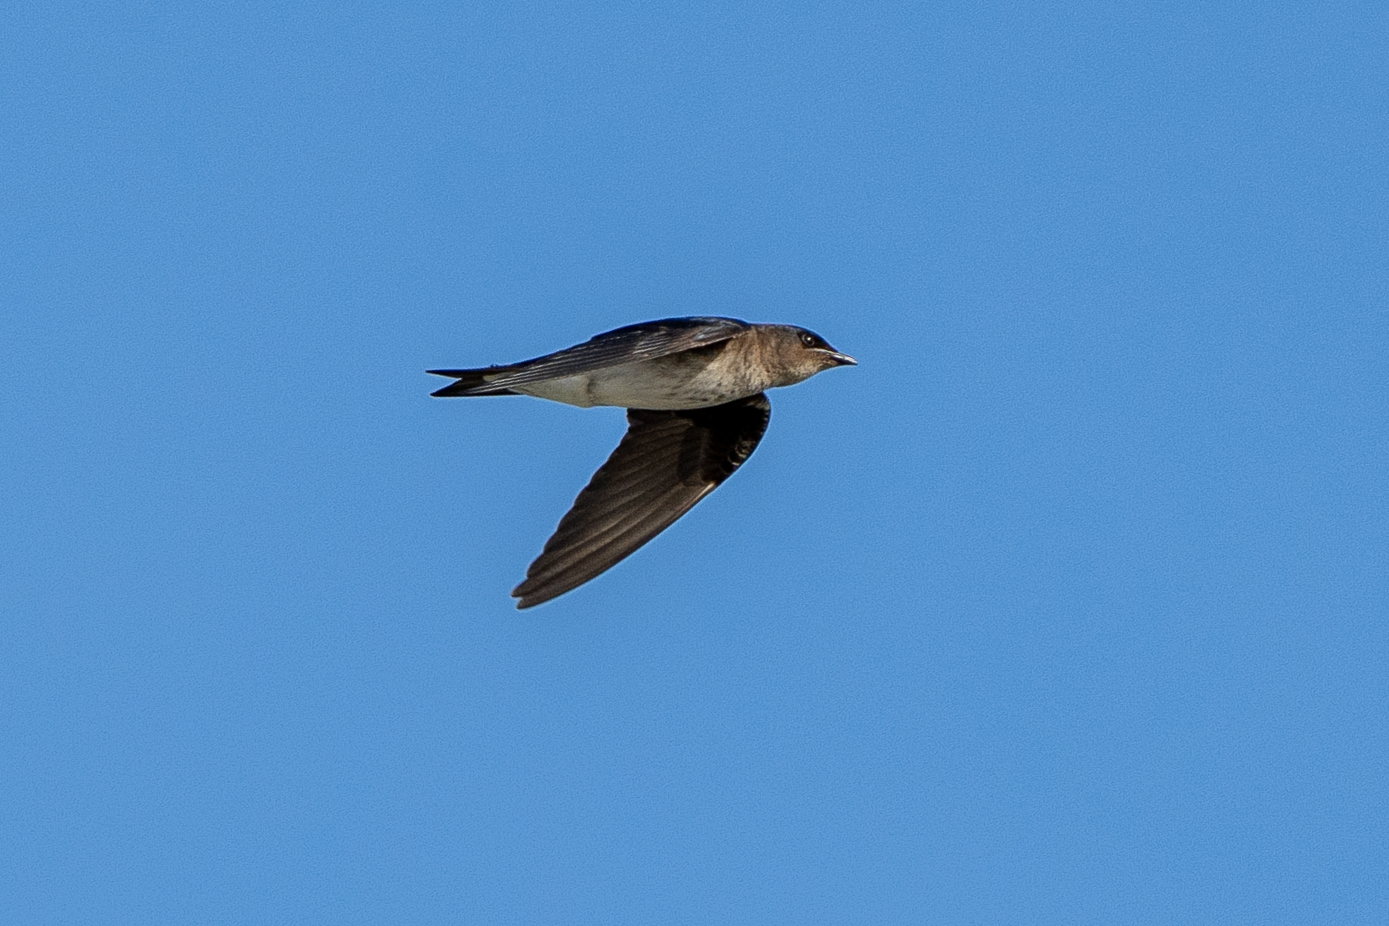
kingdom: Animalia
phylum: Chordata
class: Aves
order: Passeriformes
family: Hirundinidae
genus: Progne
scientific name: Progne chalybea
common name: Grey-breasted martin
